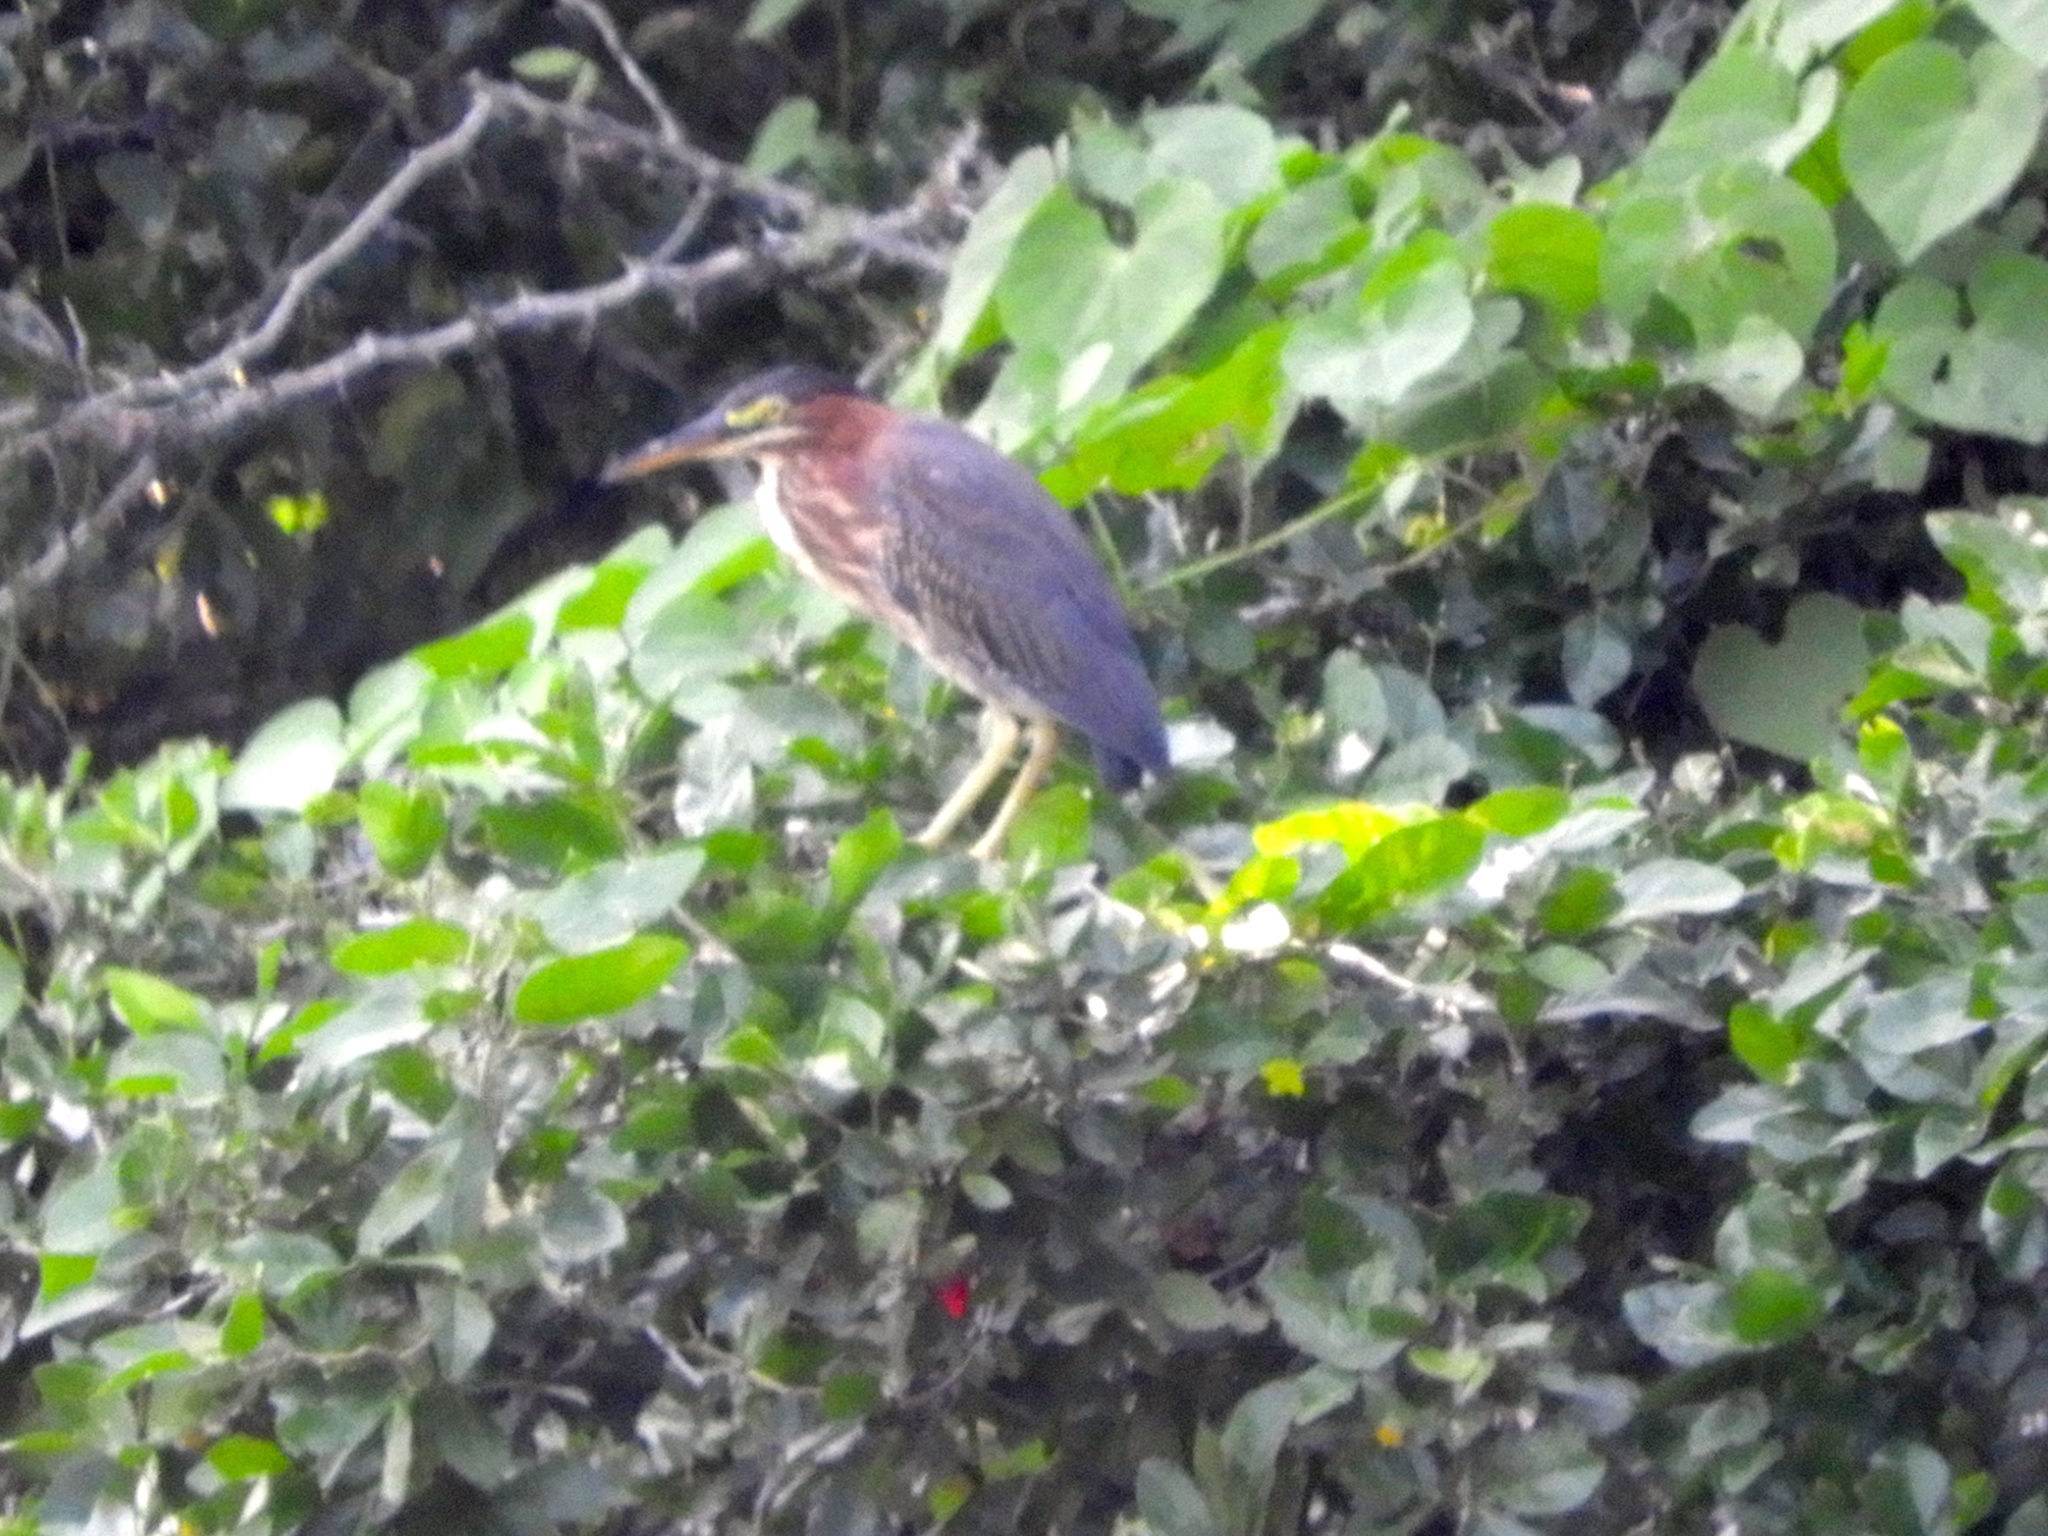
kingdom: Animalia
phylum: Chordata
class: Aves
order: Pelecaniformes
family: Ardeidae
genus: Butorides
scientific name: Butorides virescens
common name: Green heron
